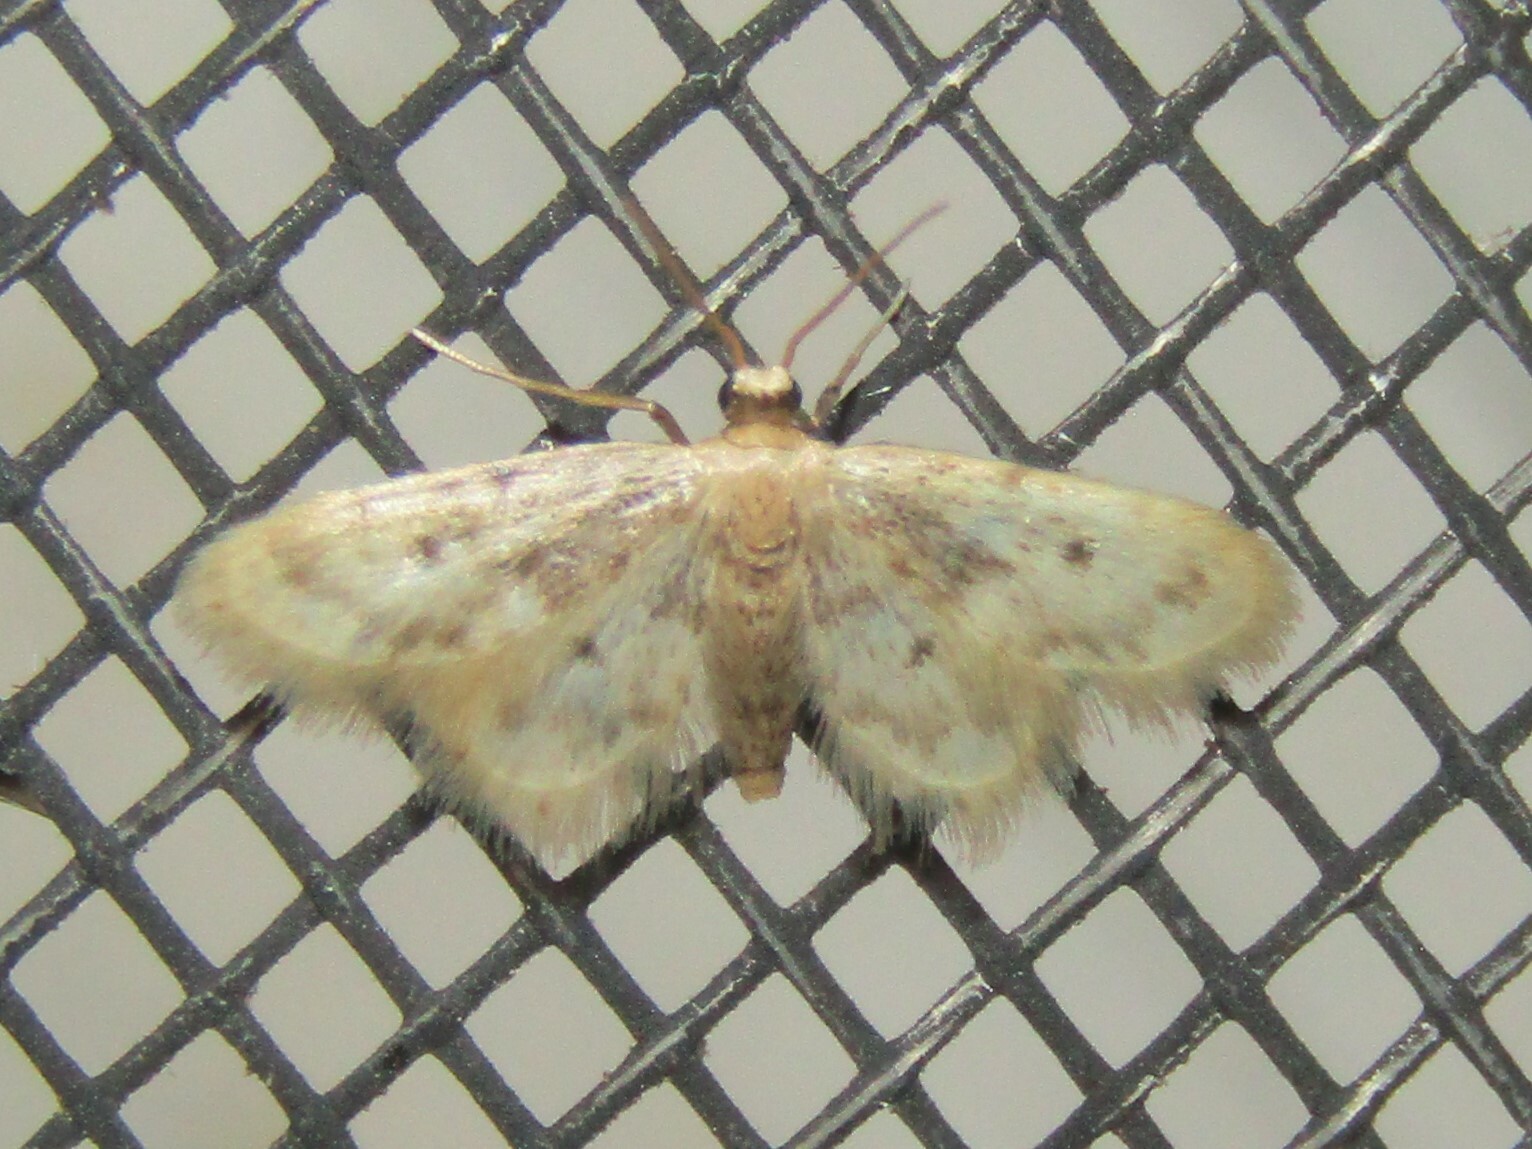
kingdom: Animalia
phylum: Arthropoda
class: Insecta
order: Lepidoptera
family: Geometridae
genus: Idaea
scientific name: Idaea obfusaria
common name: Rippled wave
